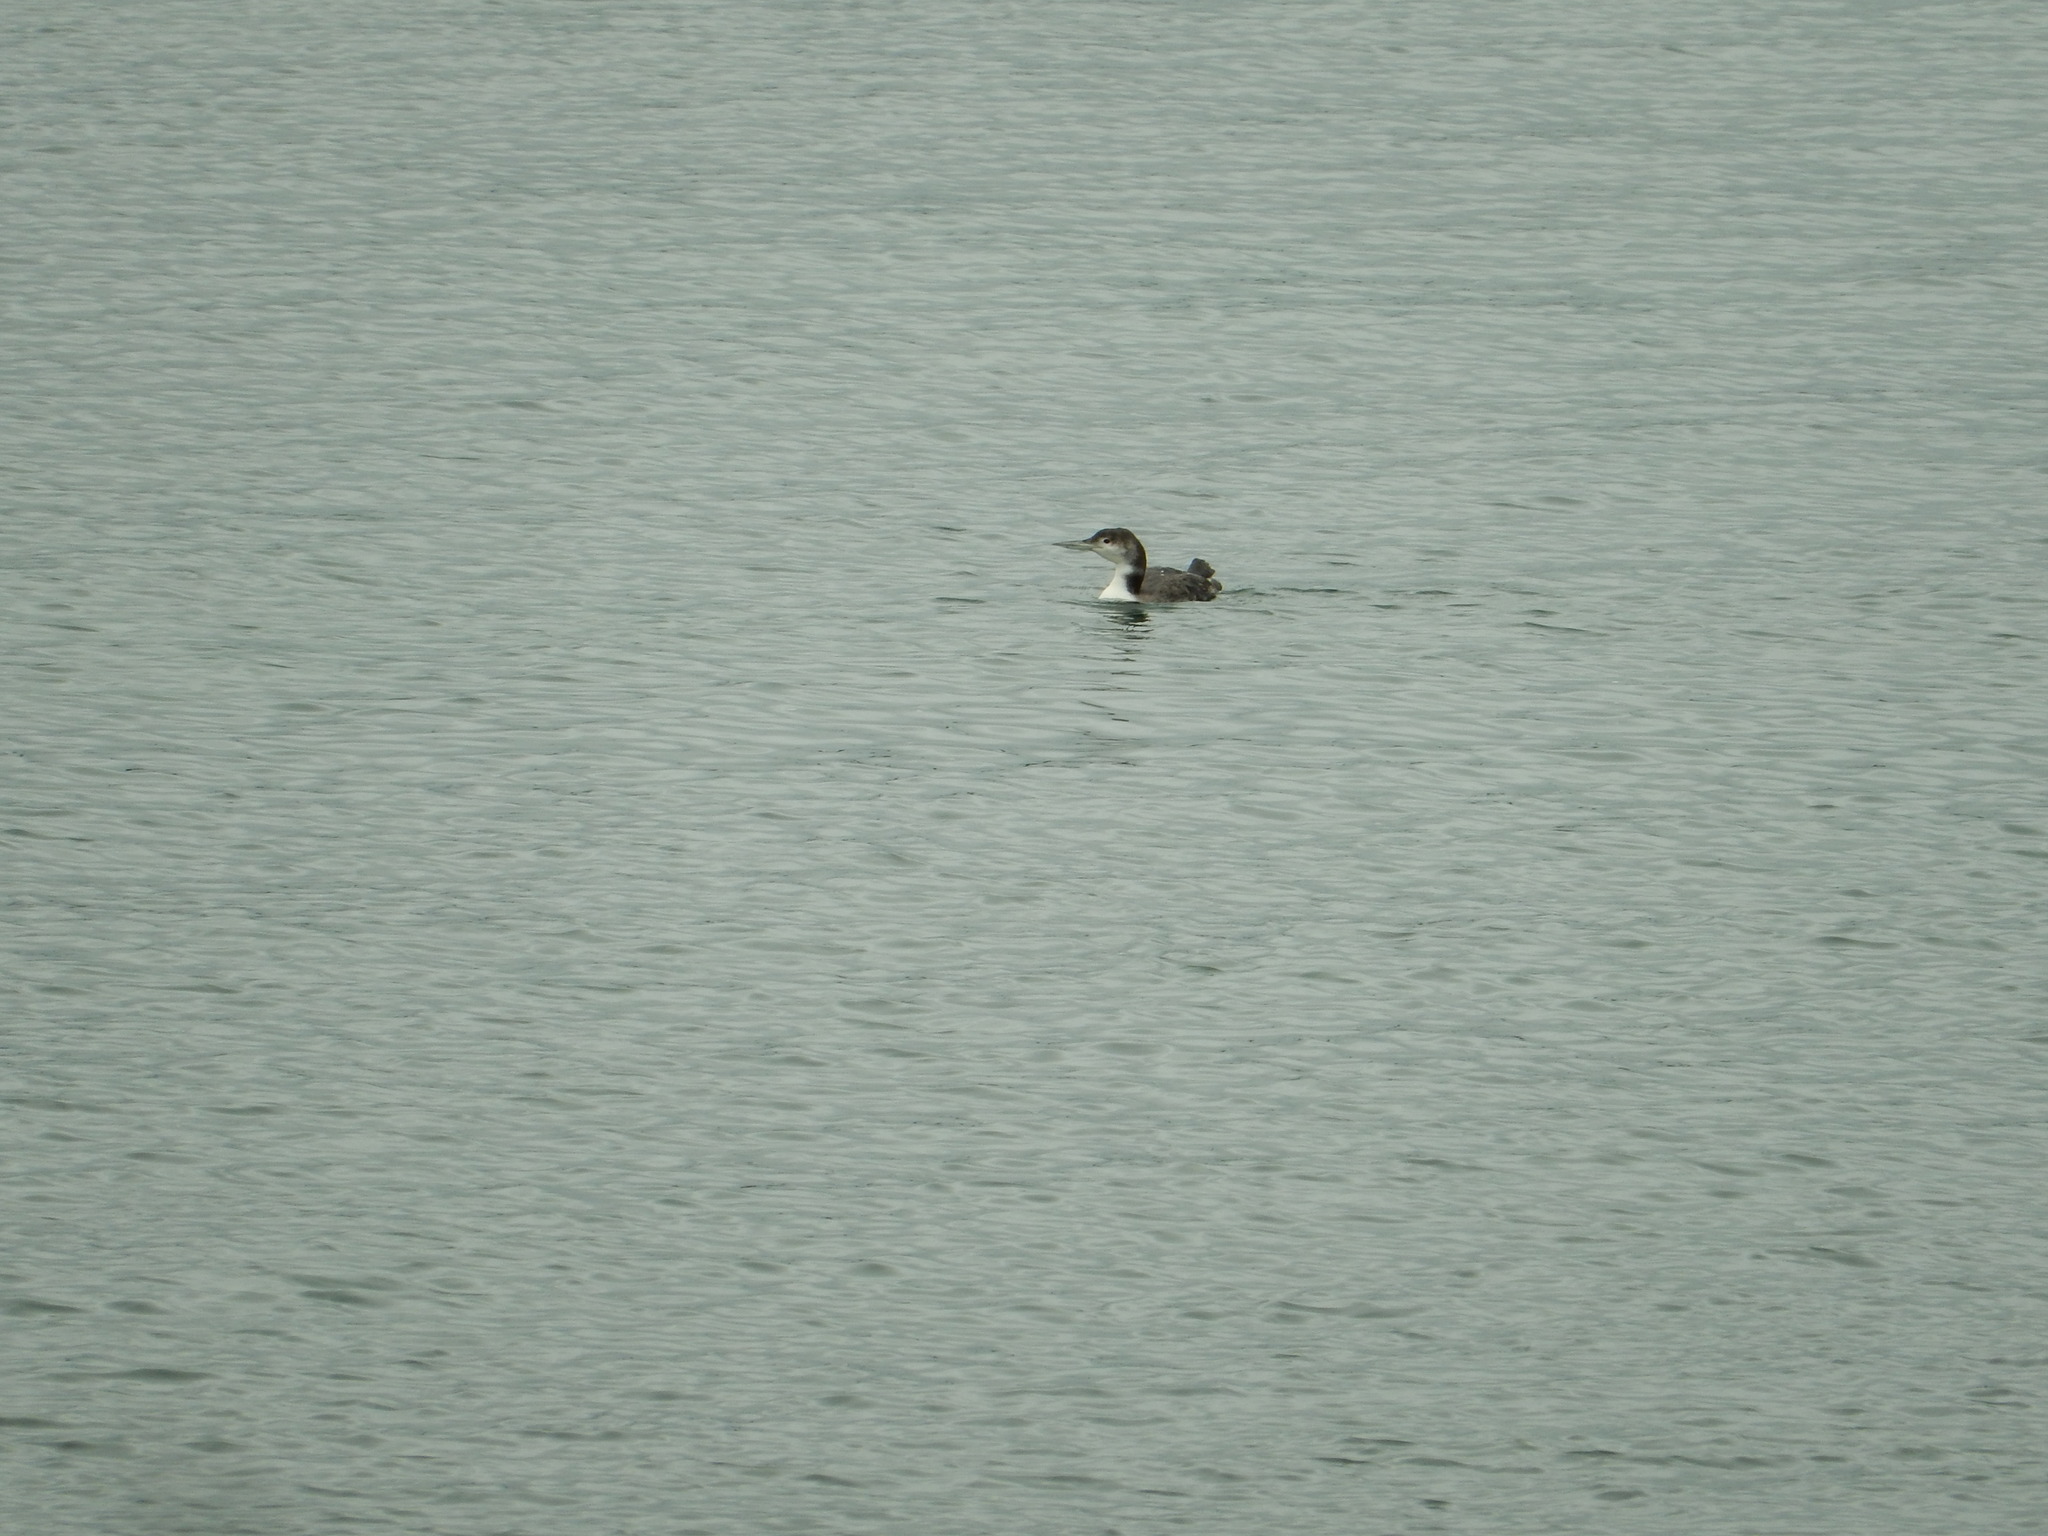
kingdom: Animalia
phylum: Chordata
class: Aves
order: Gaviiformes
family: Gaviidae
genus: Gavia
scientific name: Gavia immer
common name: Common loon
